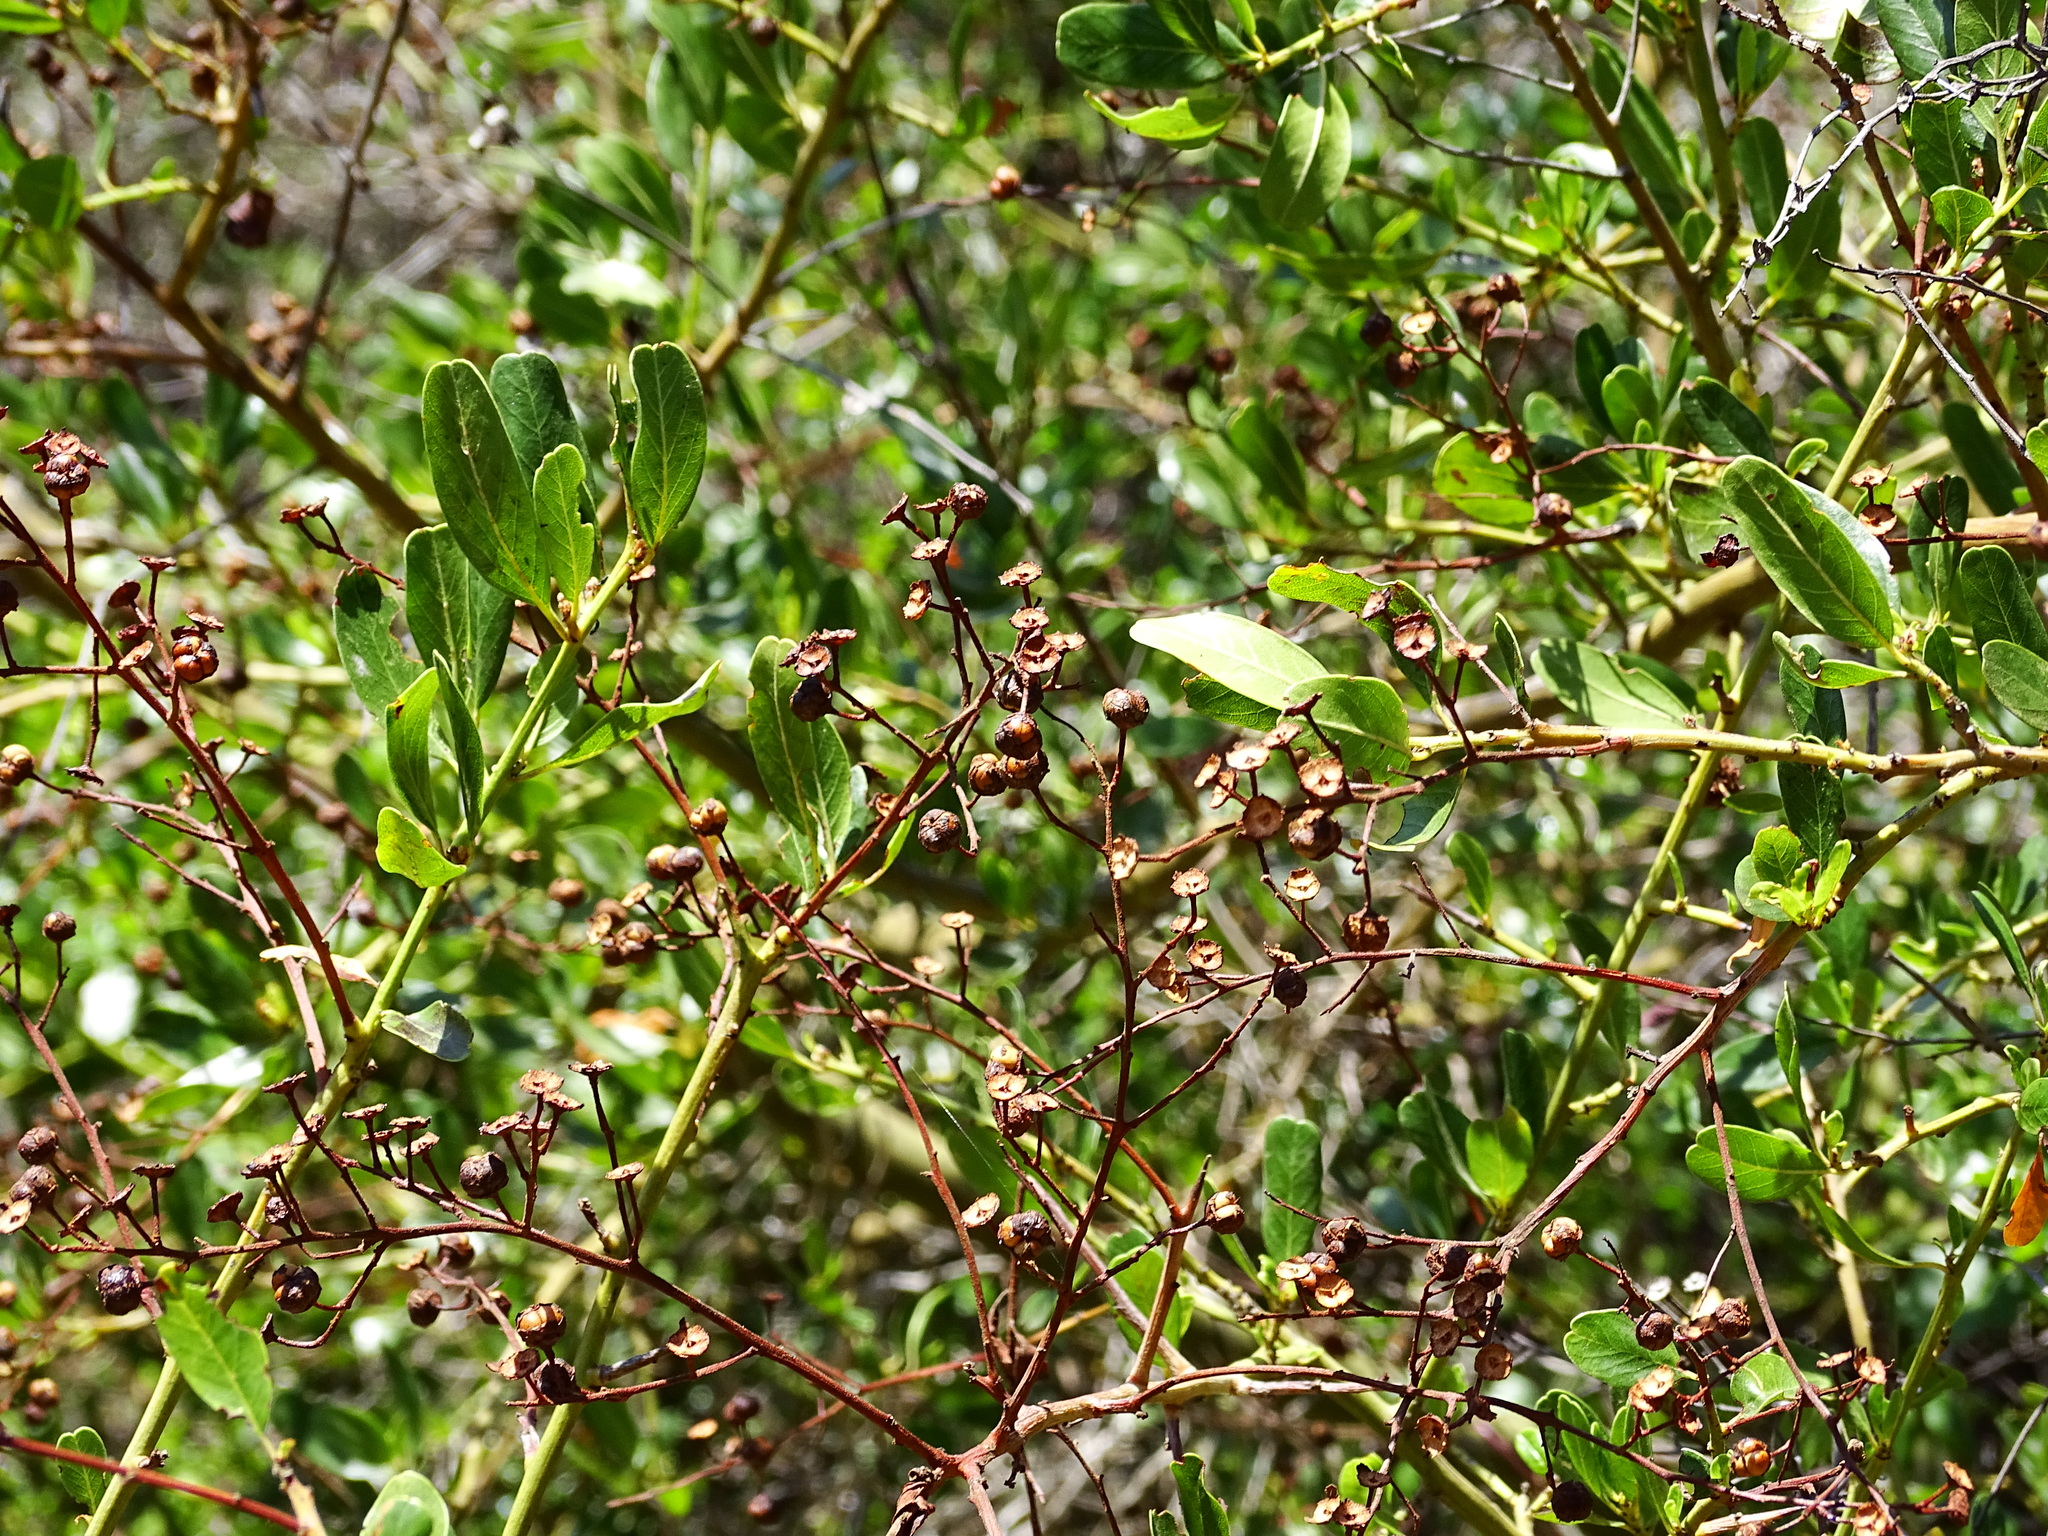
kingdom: Plantae
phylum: Tracheophyta
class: Magnoliopsida
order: Rosales
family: Rhamnaceae
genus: Ceanothus
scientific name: Ceanothus spinosus
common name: Greenbark whitethorn
